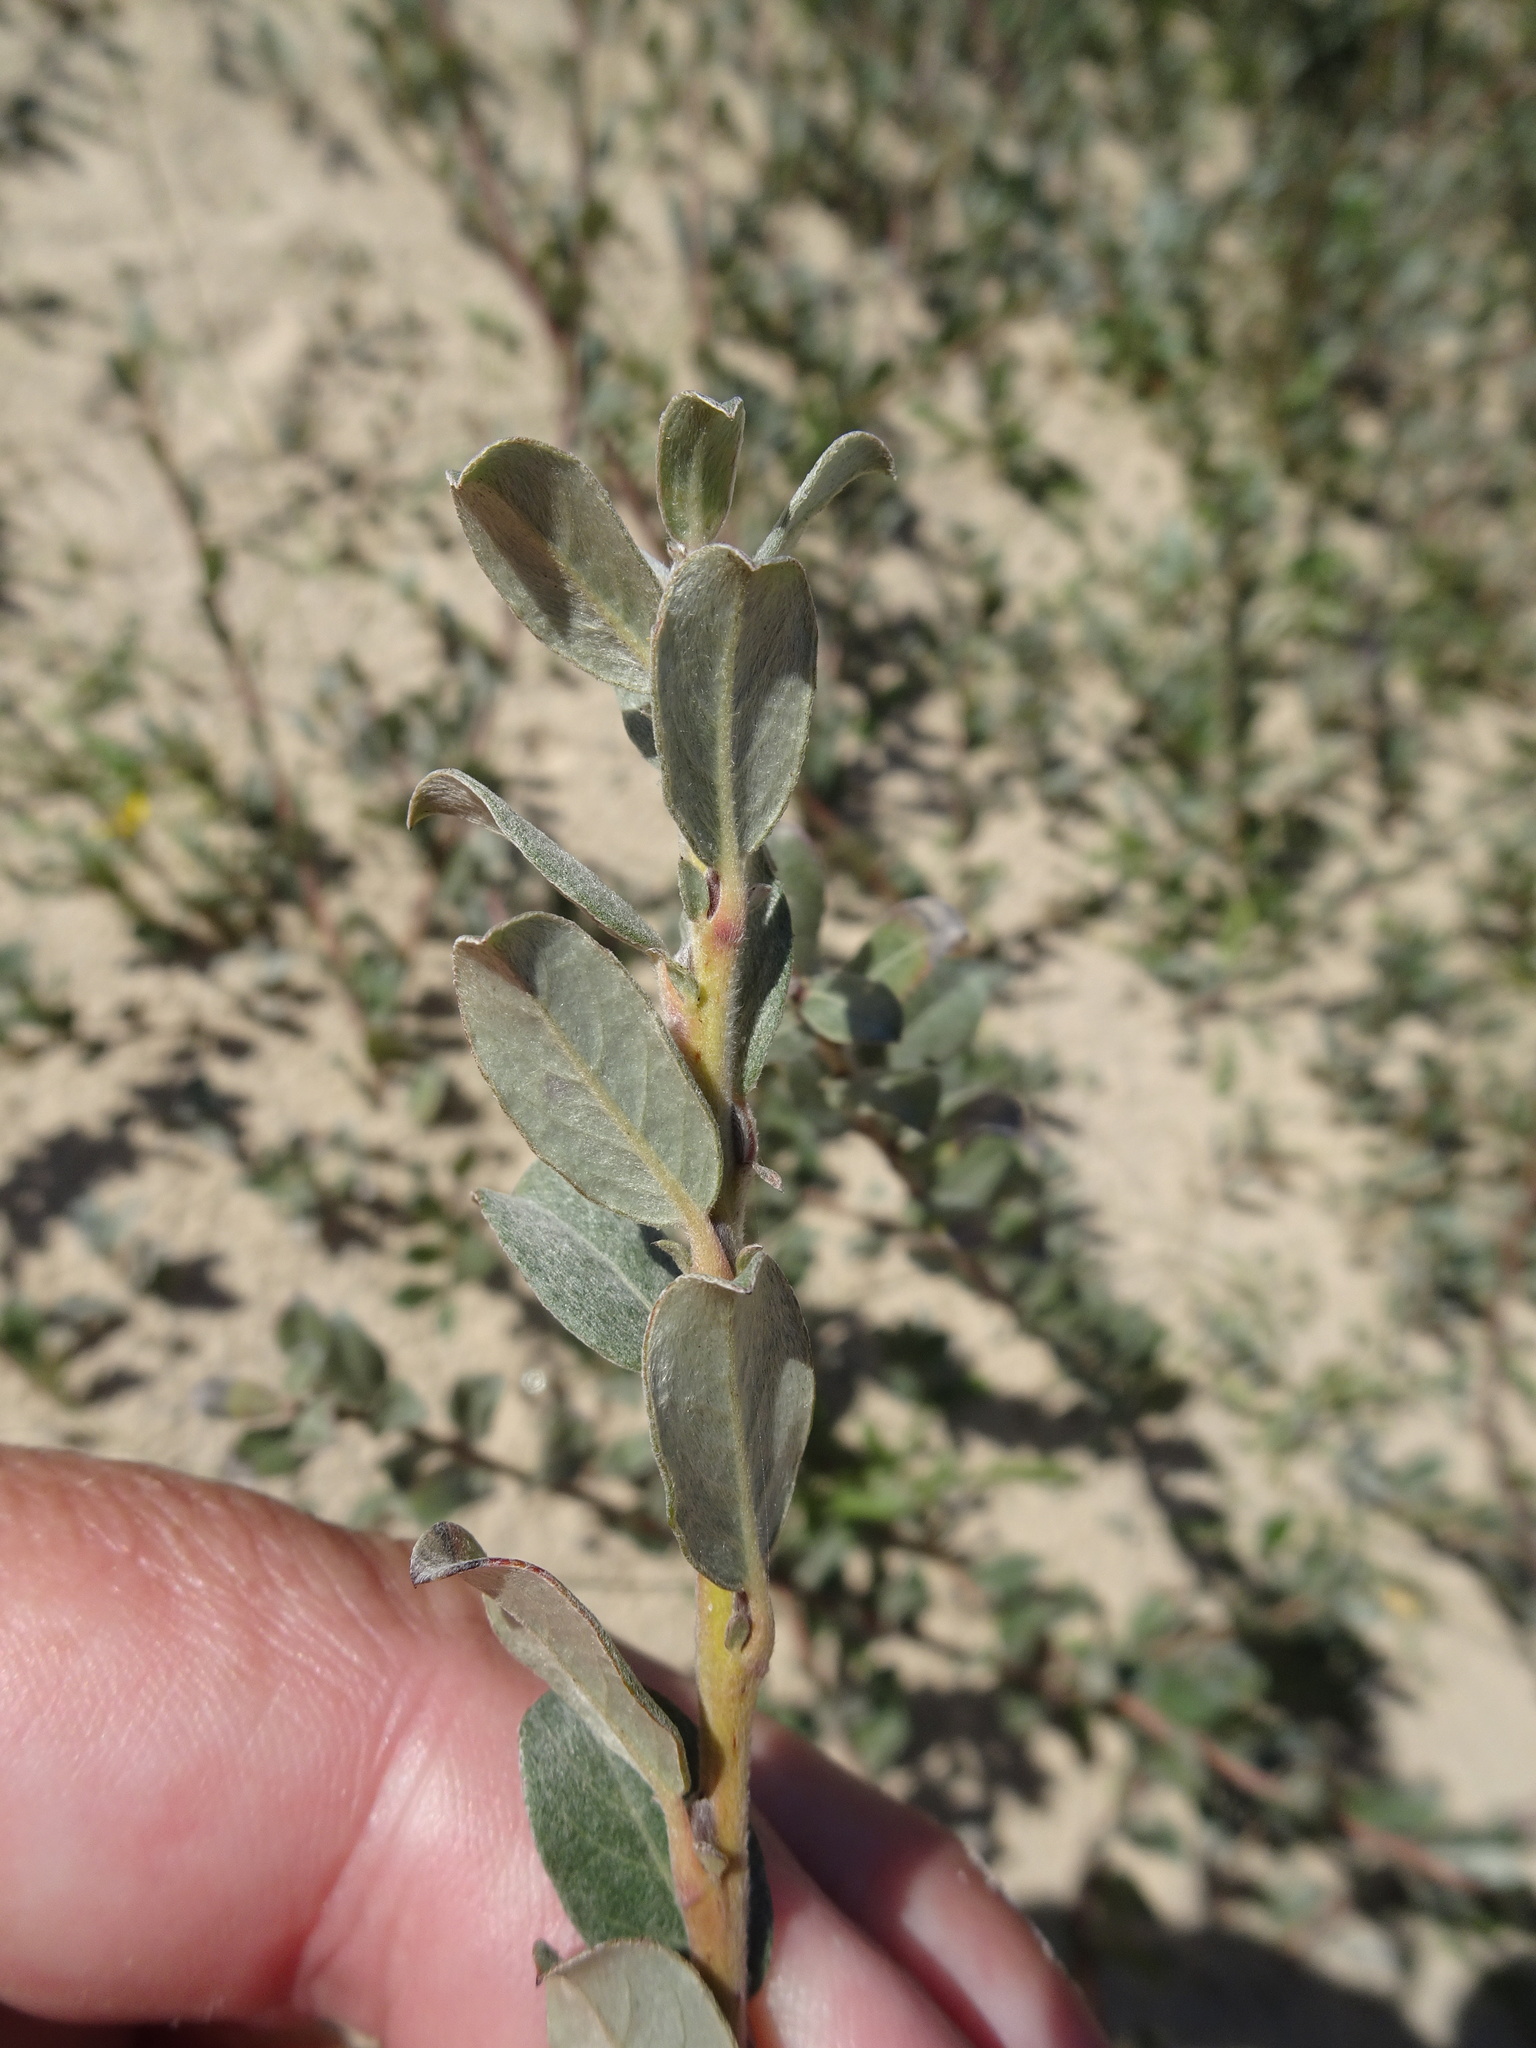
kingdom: Plantae
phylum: Tracheophyta
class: Magnoliopsida
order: Malpighiales
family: Salicaceae
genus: Salix
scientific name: Salix repens
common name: Creeping willow
